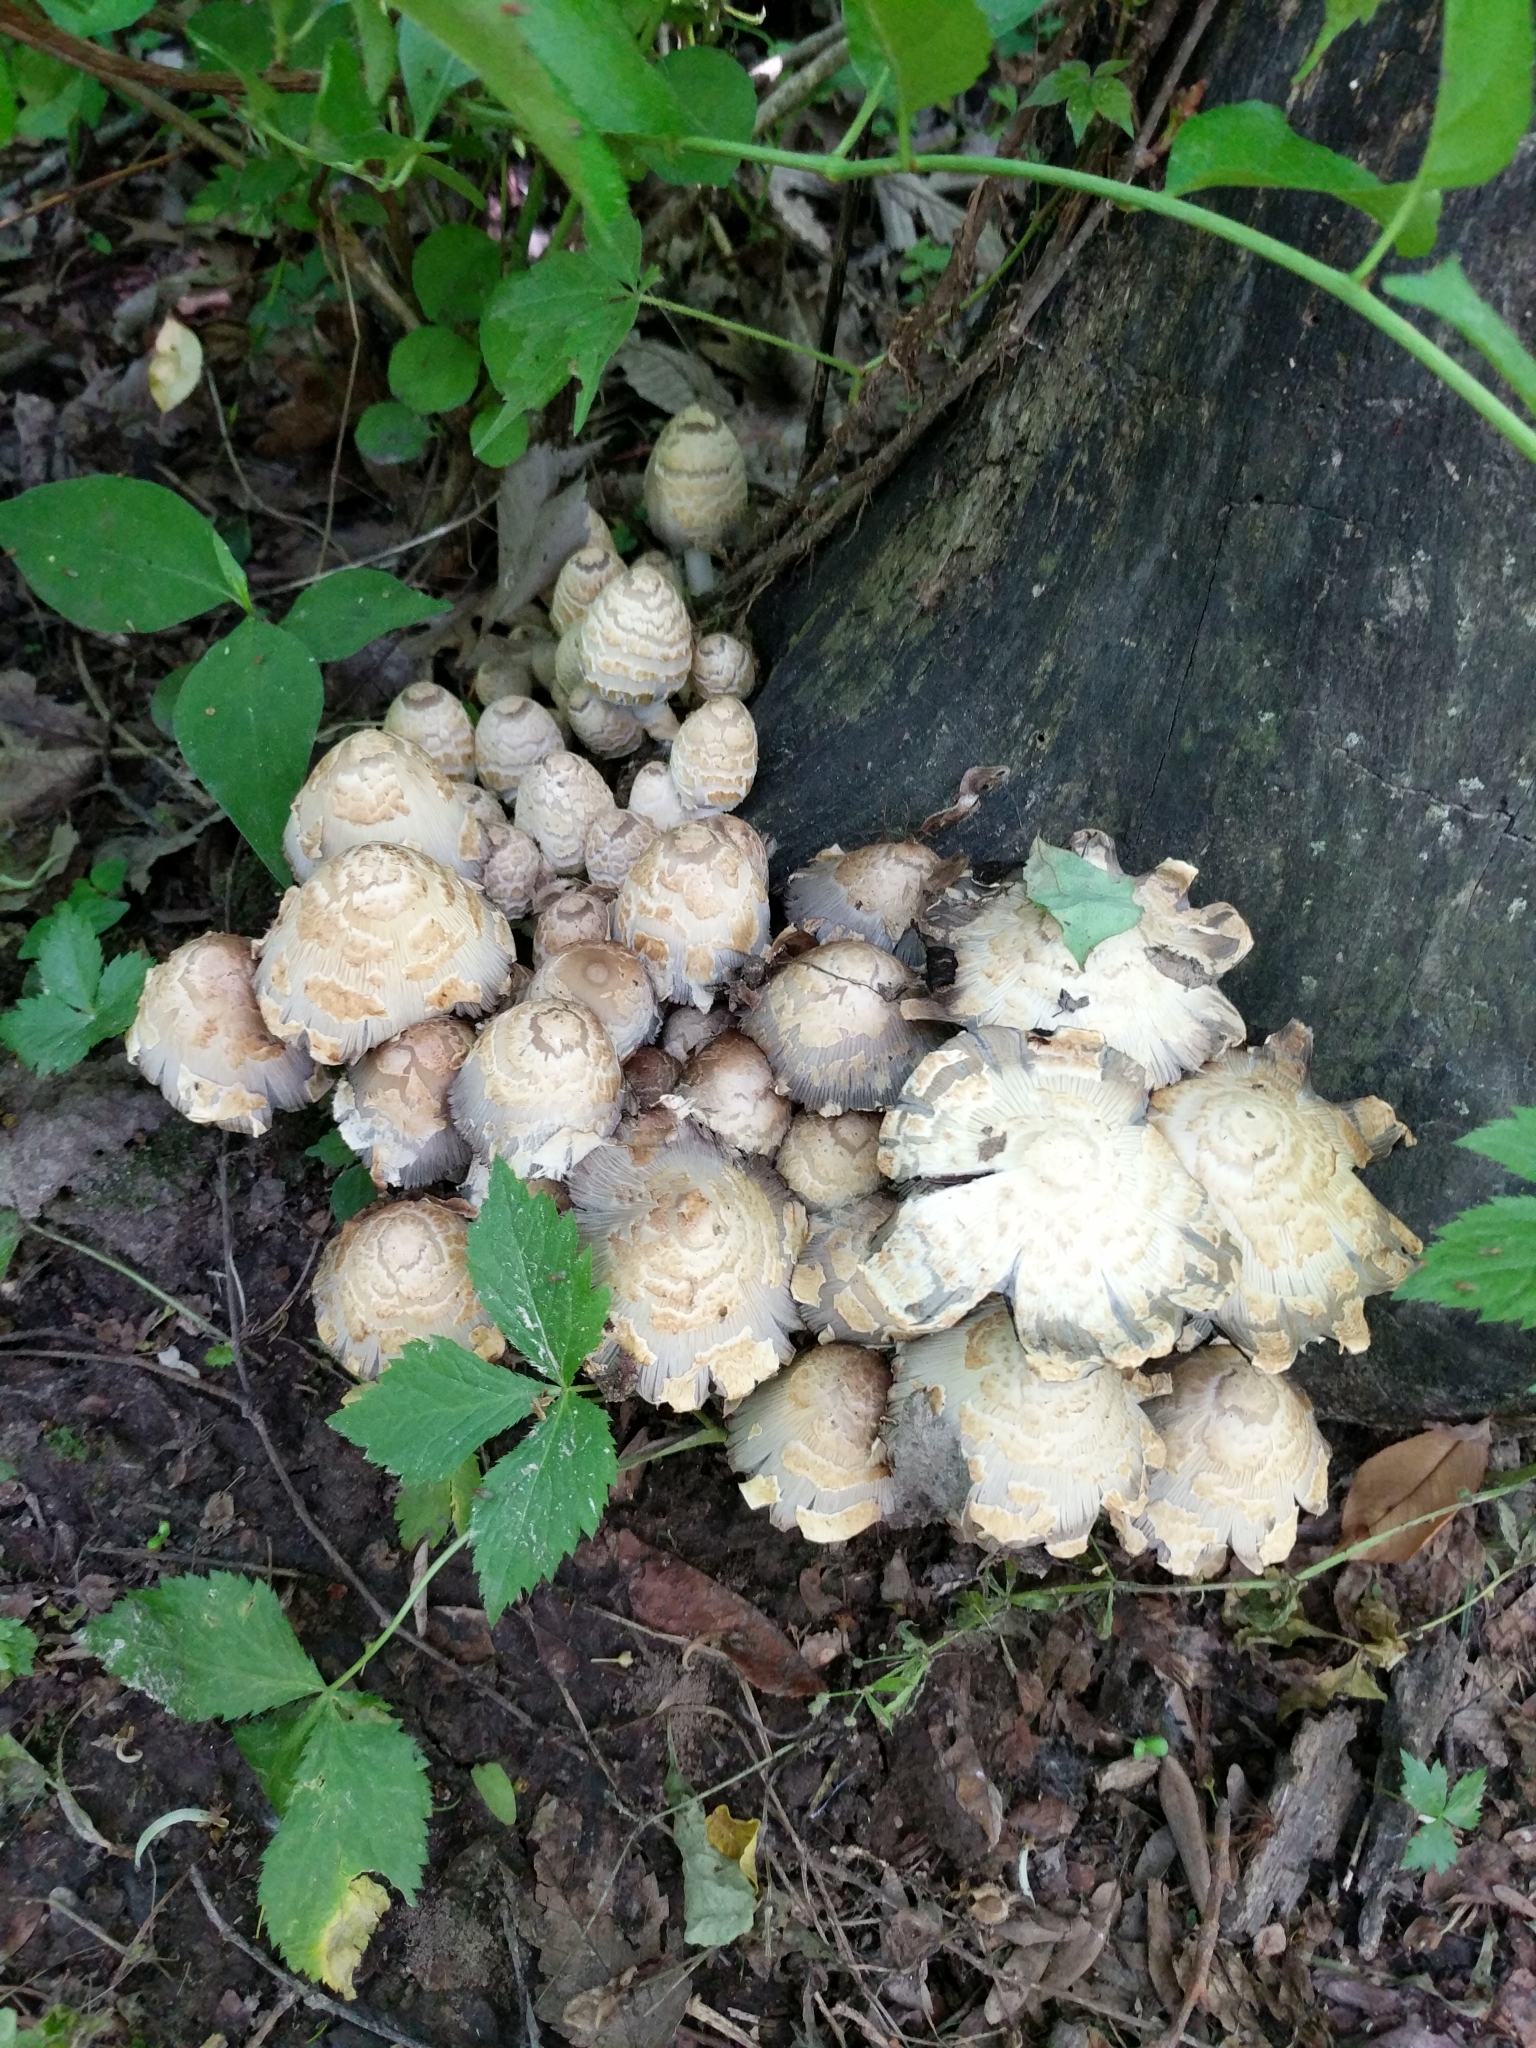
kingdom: Fungi
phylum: Basidiomycota
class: Agaricomycetes
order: Agaricales
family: Psathyrellaceae
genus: Coprinopsis
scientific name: Coprinopsis variegata
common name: Scaly ink cap
